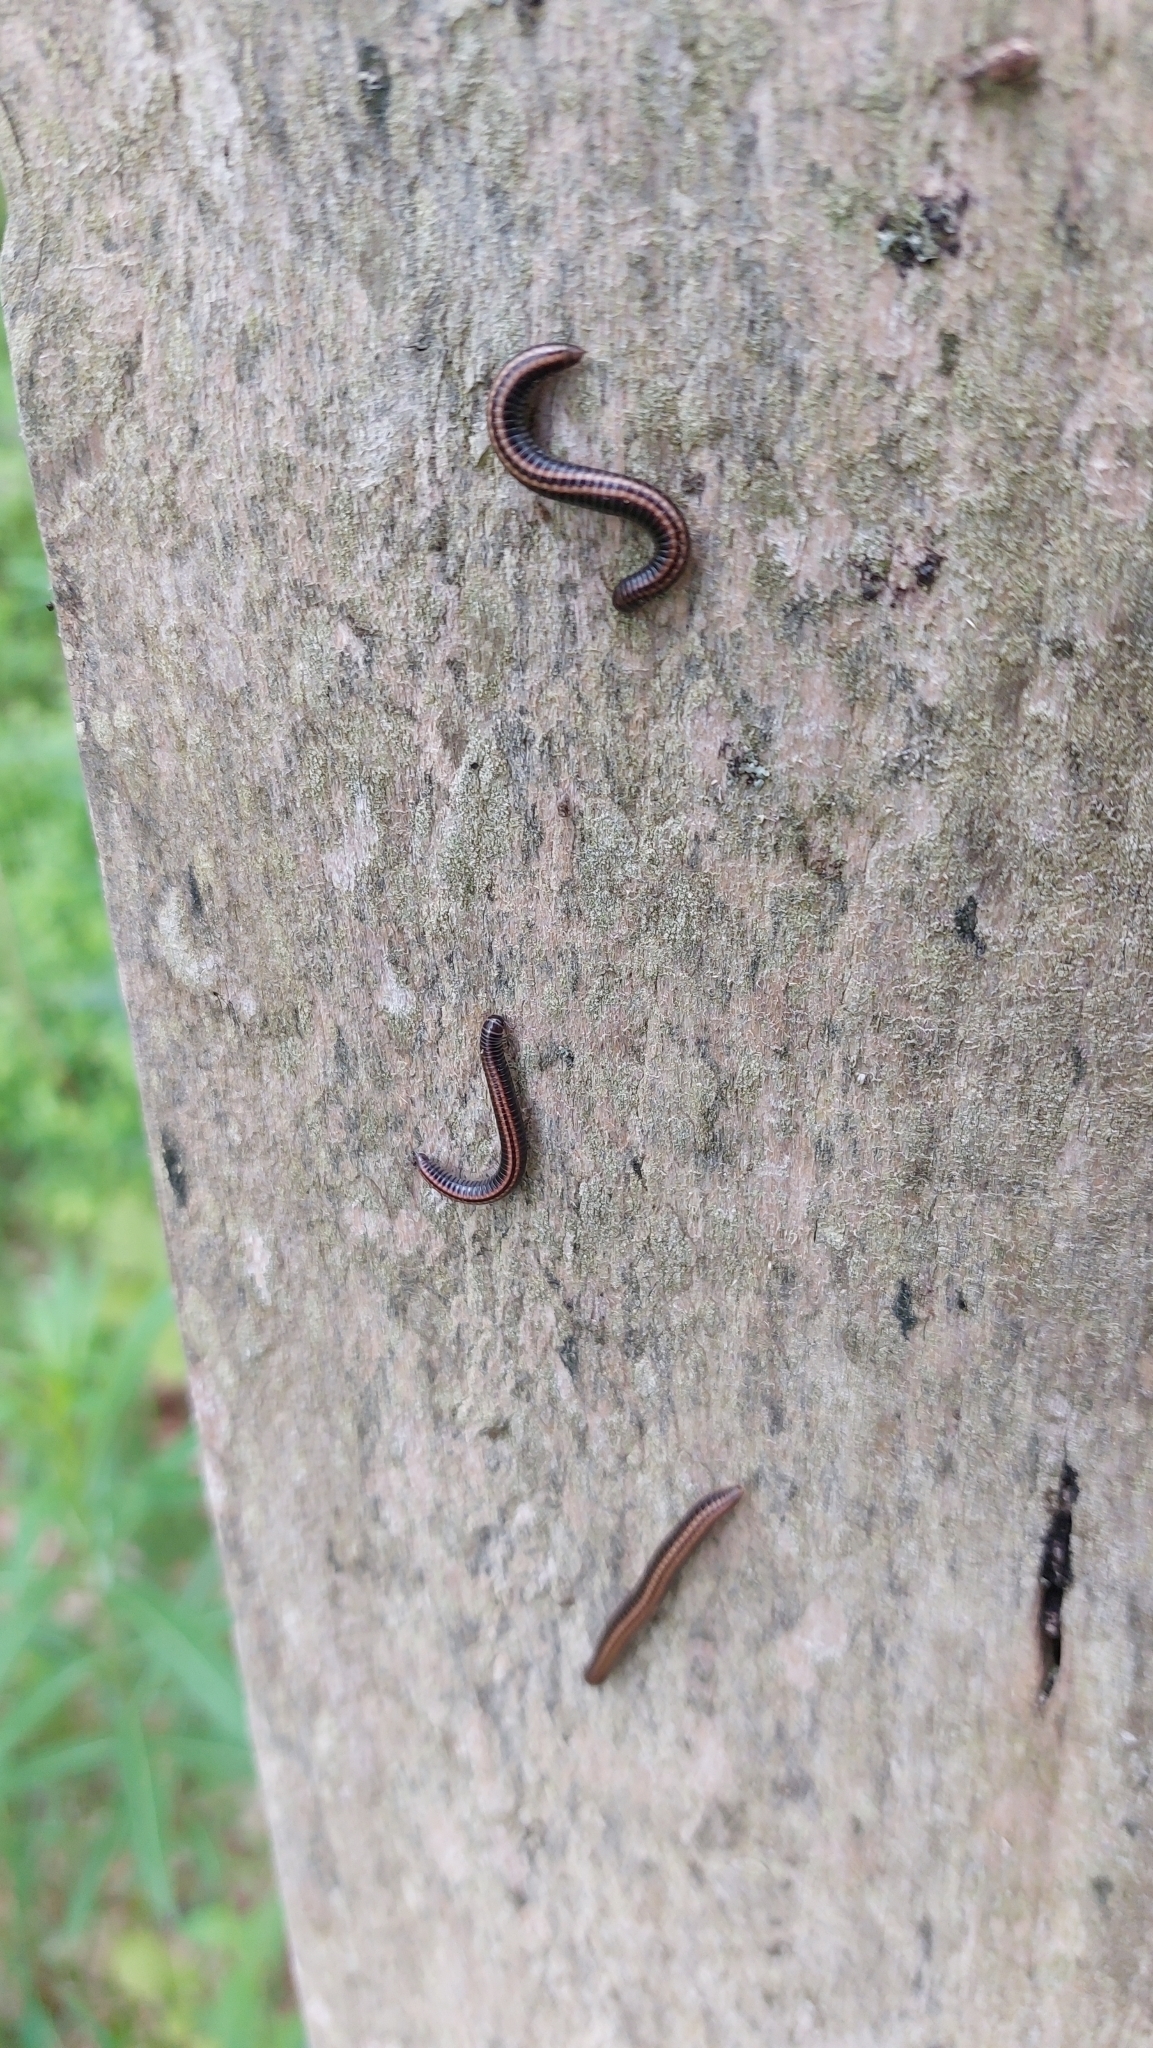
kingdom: Animalia
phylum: Arthropoda
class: Diplopoda
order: Julida
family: Julidae
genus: Ommatoiulus
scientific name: Ommatoiulus sabulosus
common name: Striped millipede
